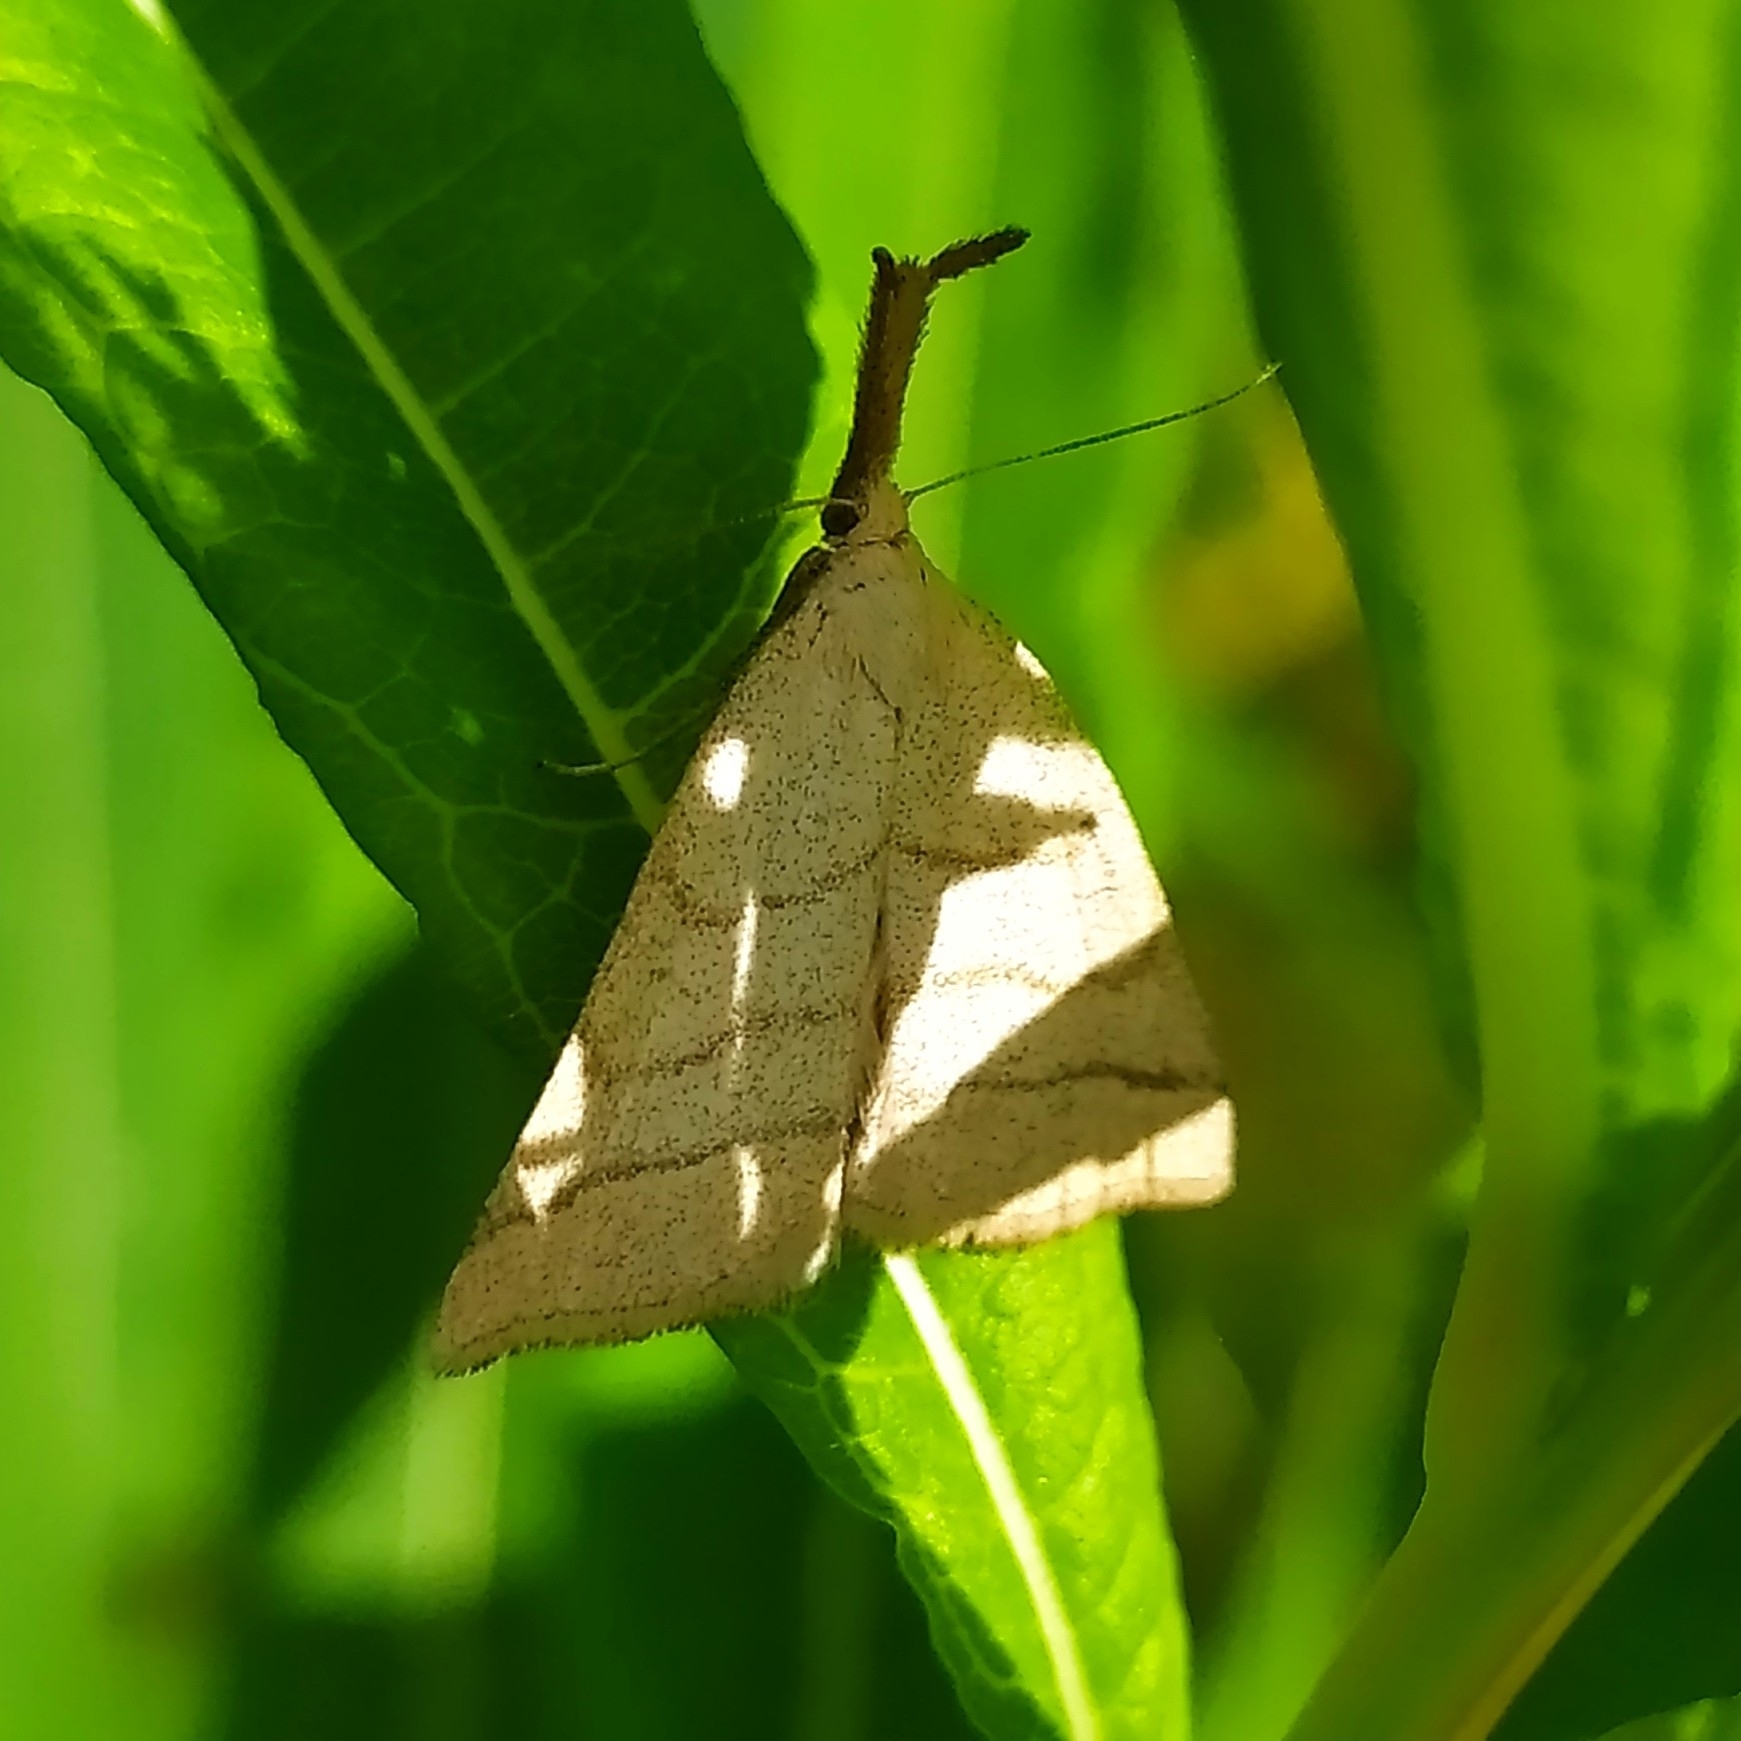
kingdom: Animalia
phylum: Arthropoda
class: Insecta
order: Lepidoptera
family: Erebidae
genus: Polypogon
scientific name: Polypogon tentacularia
